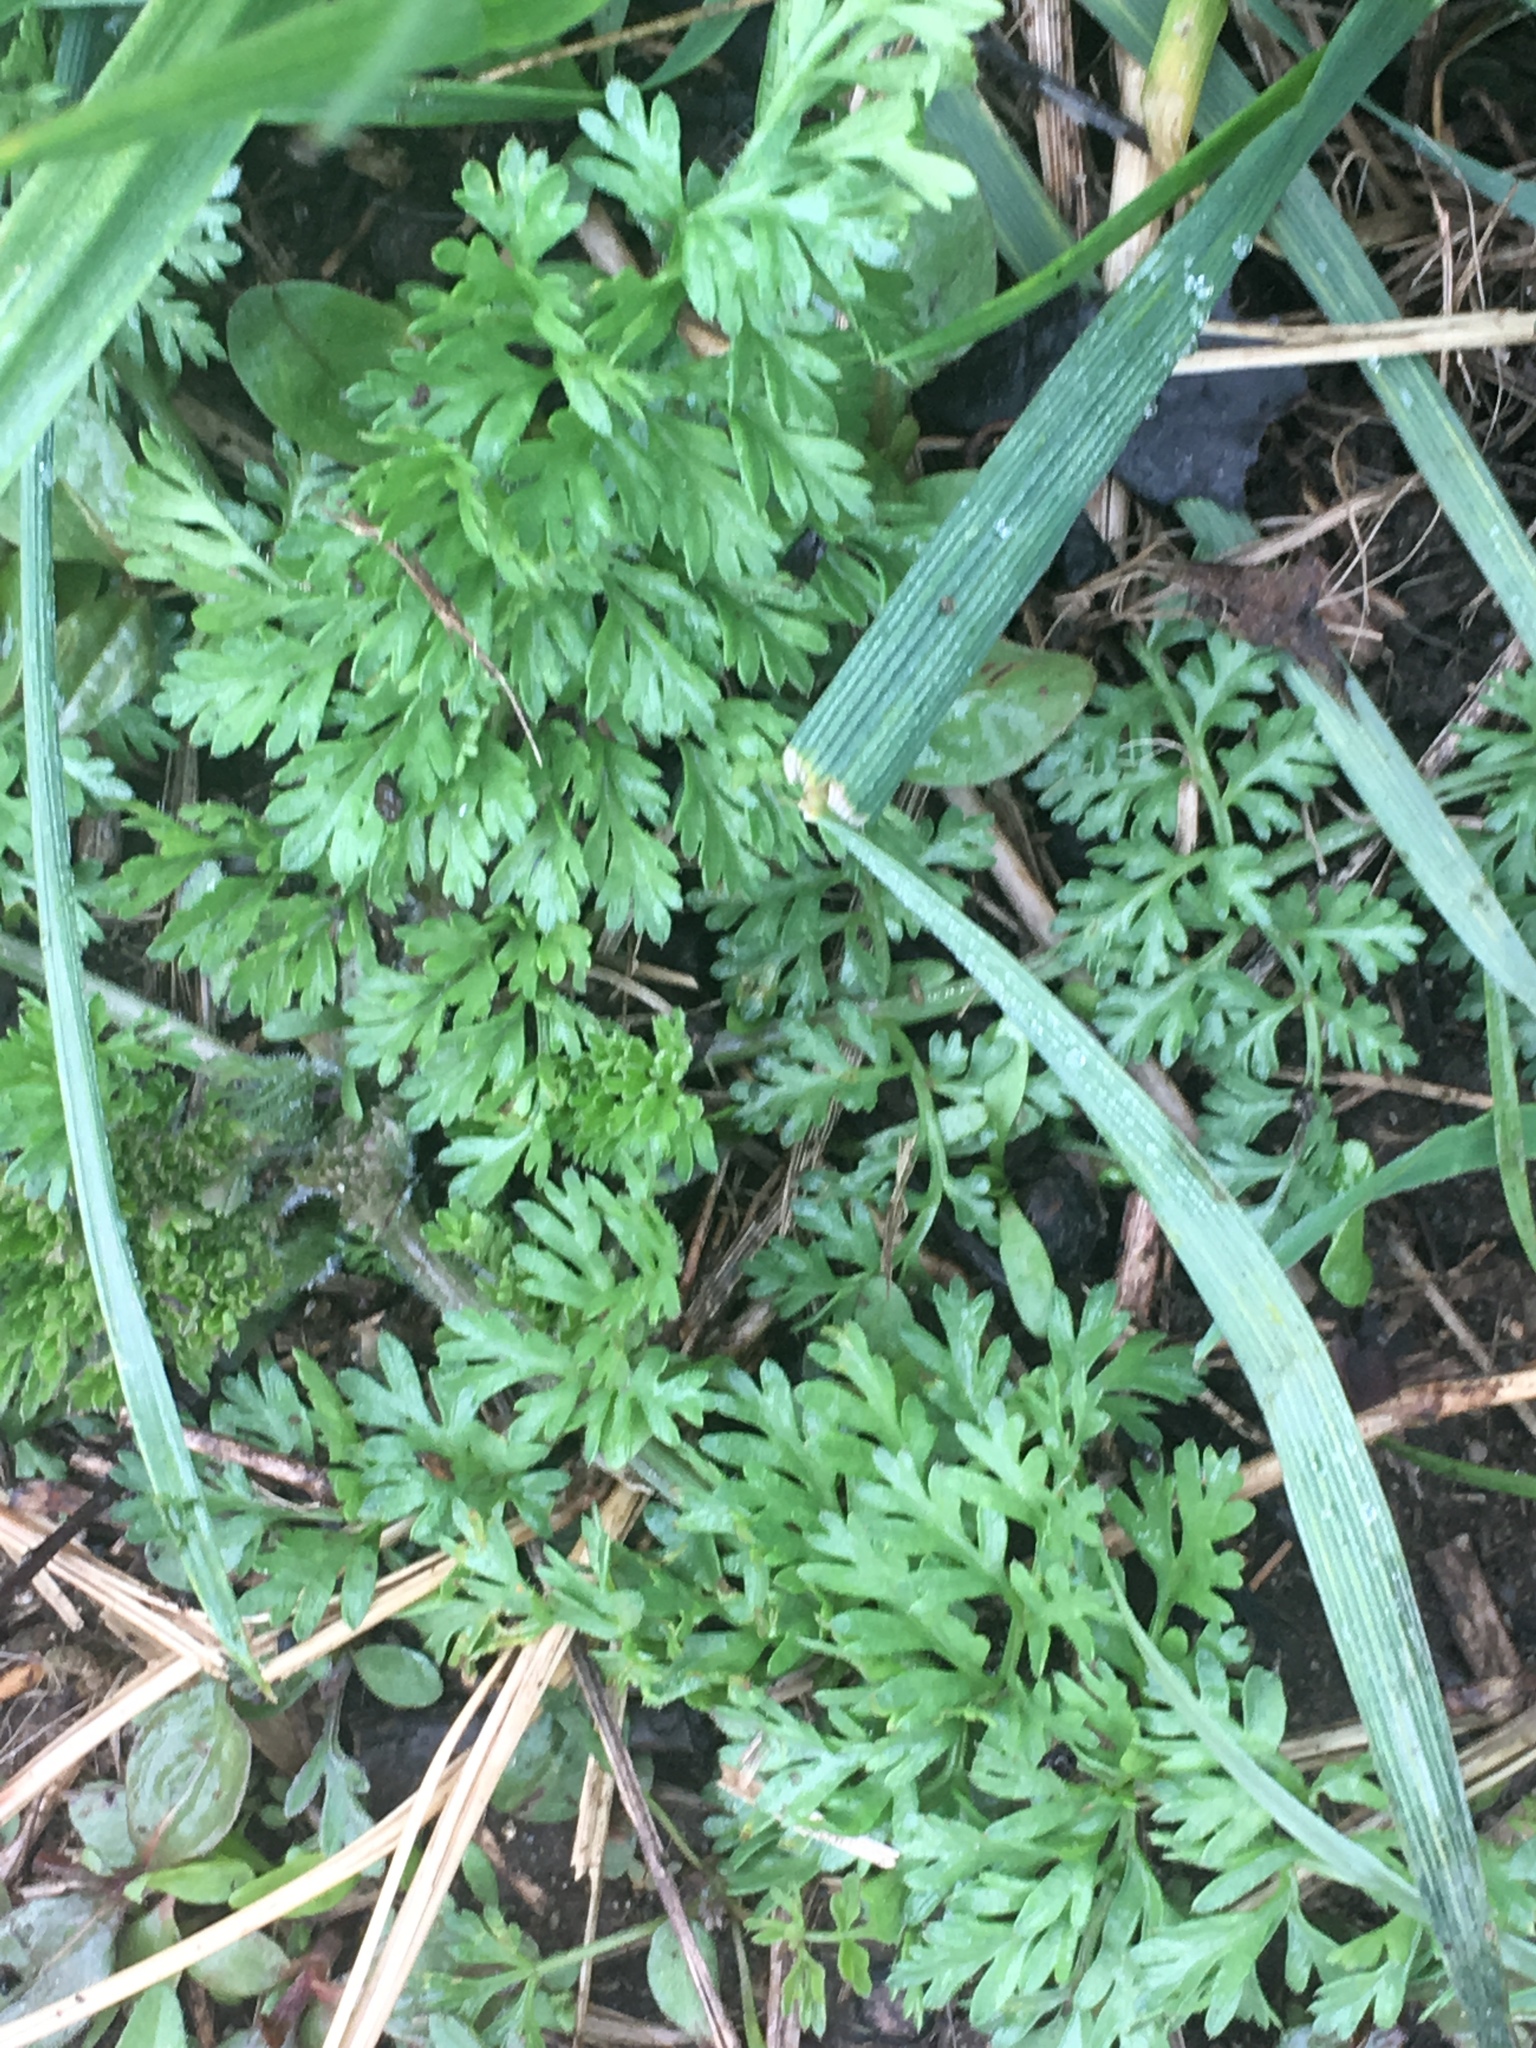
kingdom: Plantae
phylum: Tracheophyta
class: Magnoliopsida
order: Apiales
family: Apiaceae
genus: Daucus
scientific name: Daucus carota
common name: Wild carrot
